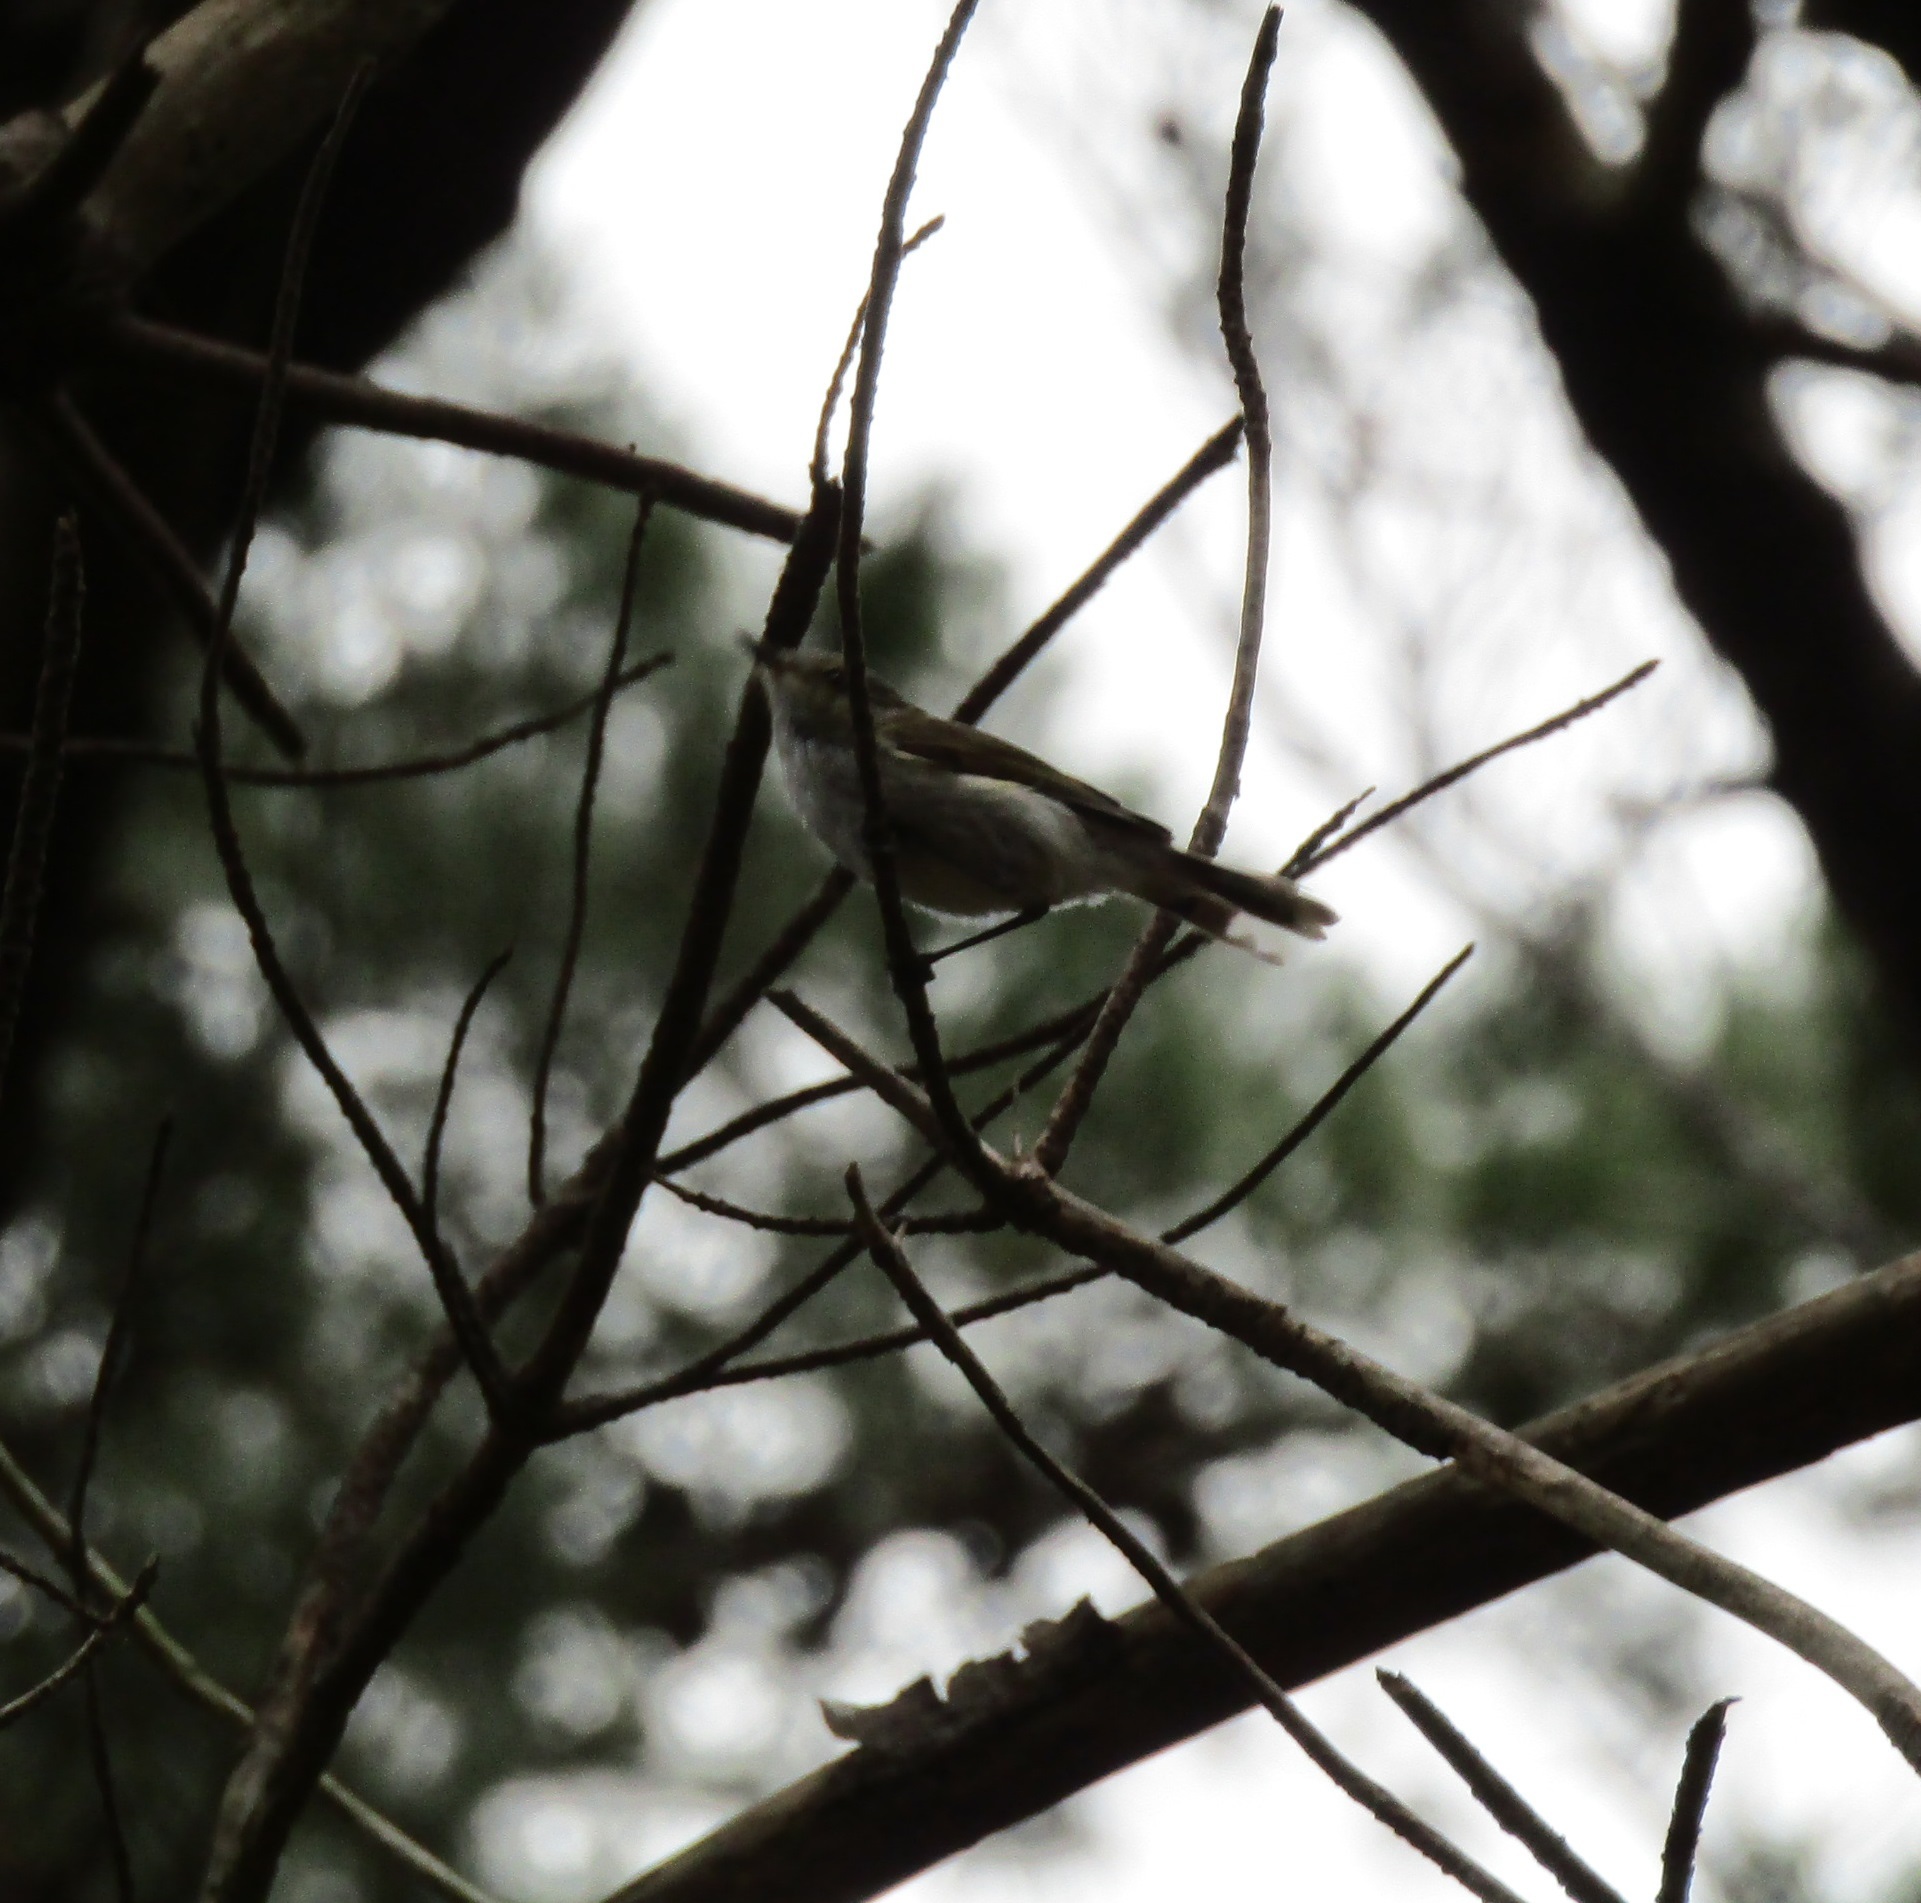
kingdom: Animalia
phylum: Chordata
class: Aves
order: Passeriformes
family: Acanthizidae
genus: Gerygone
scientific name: Gerygone igata
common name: Grey gerygone
